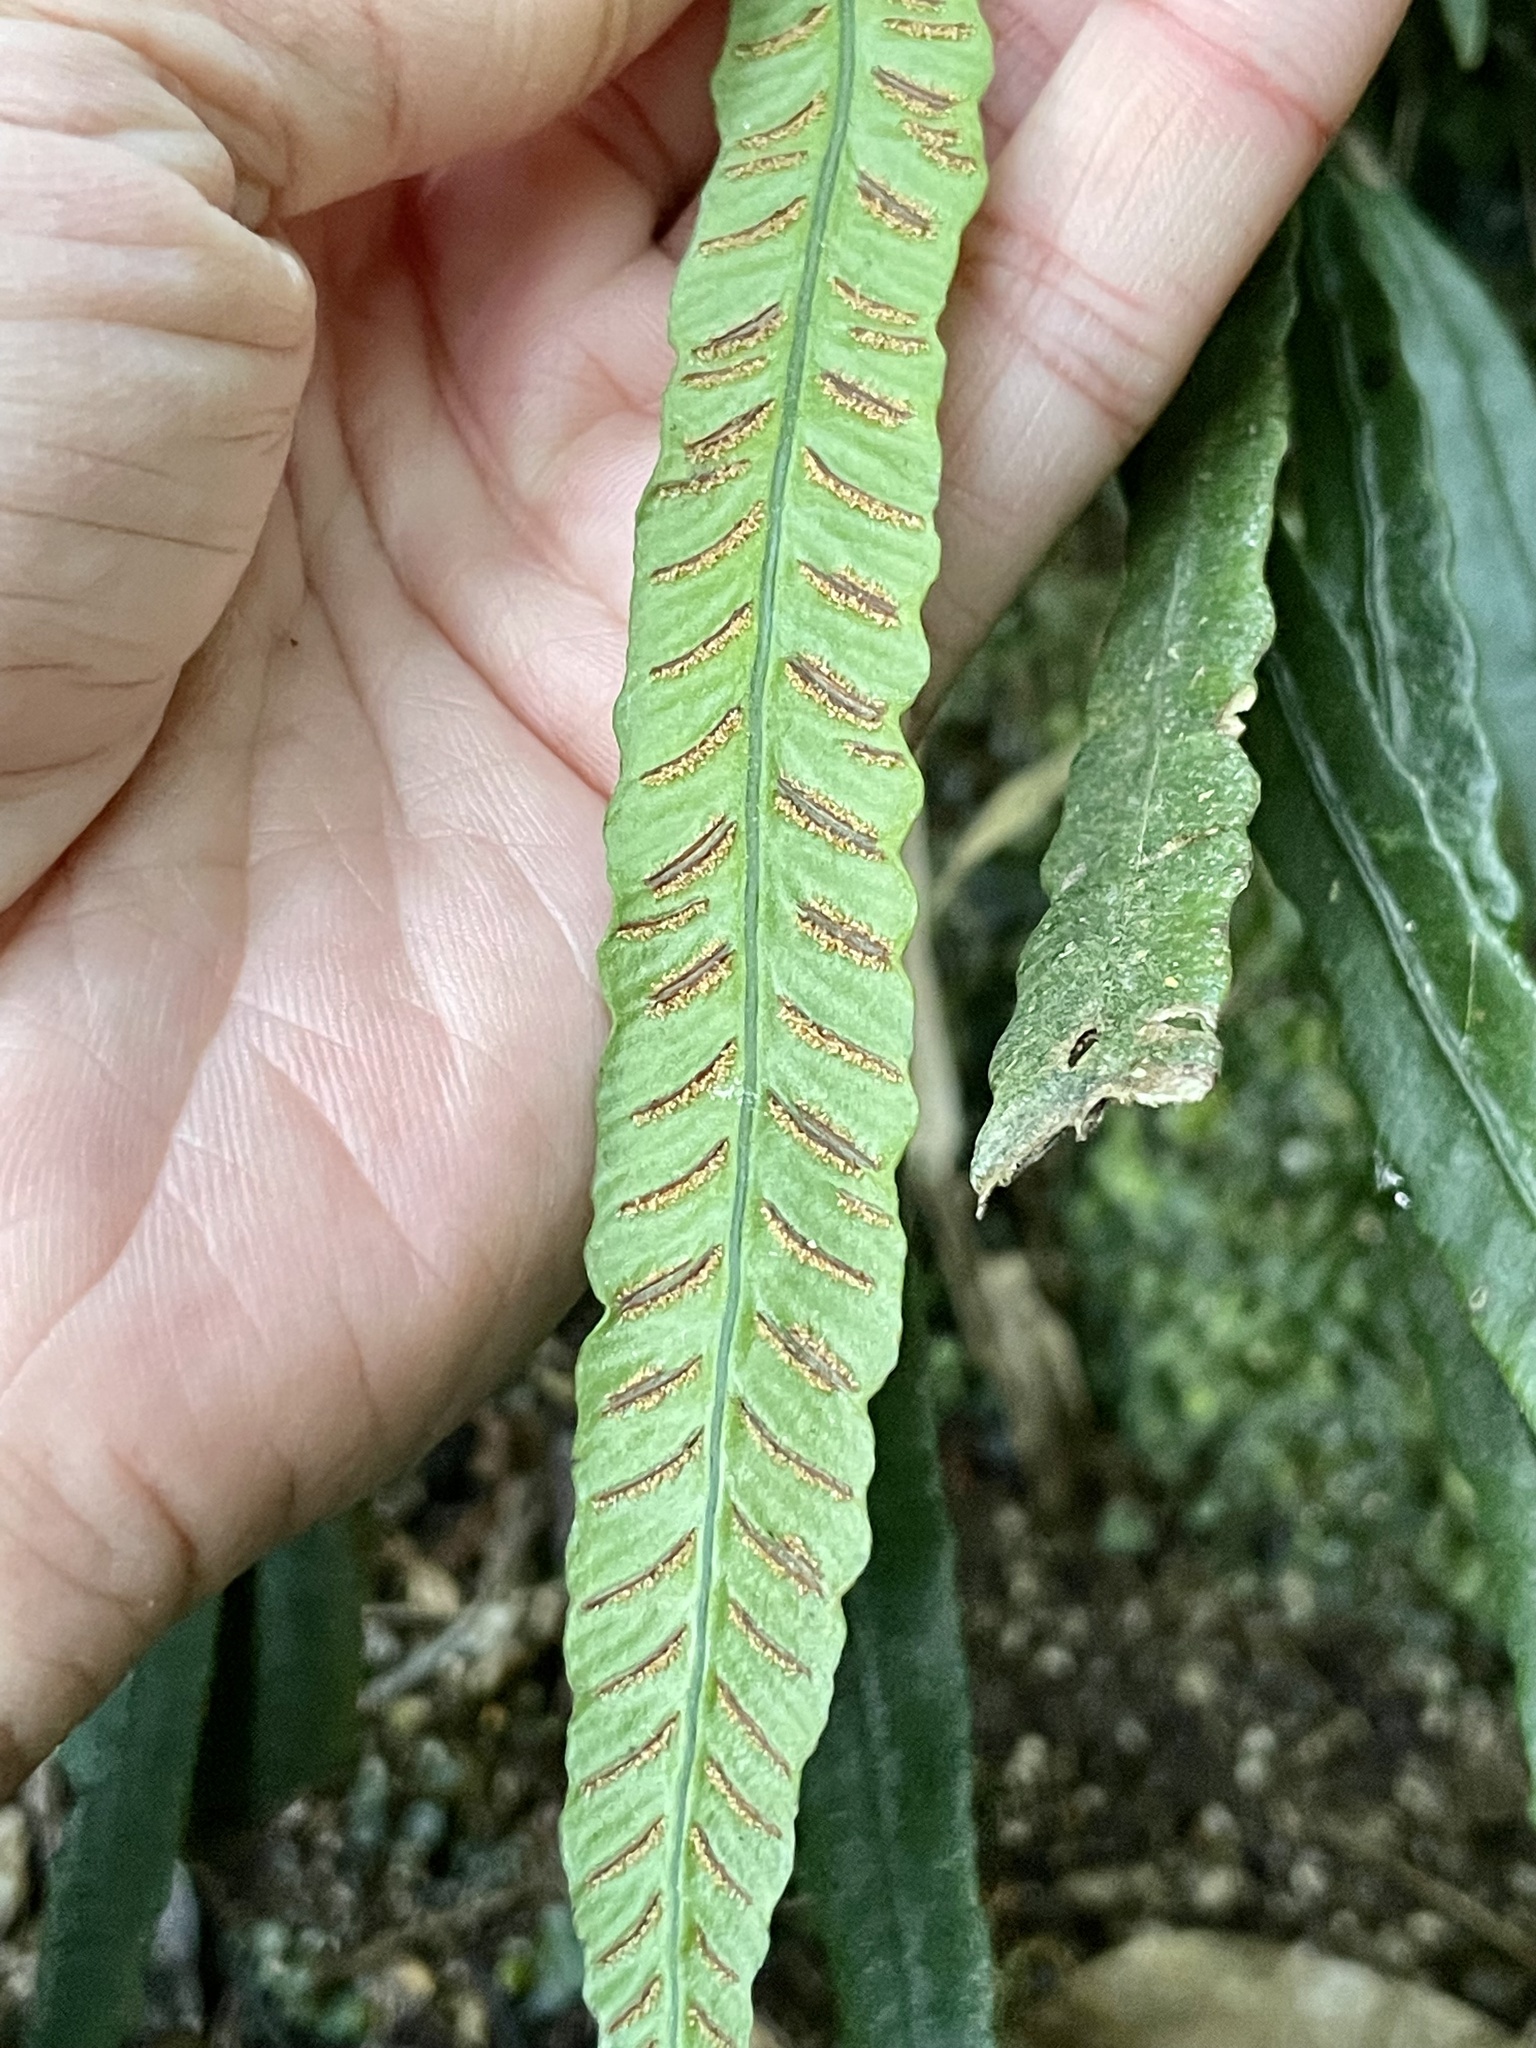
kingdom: Plantae
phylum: Tracheophyta
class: Polypodiopsida
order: Polypodiales
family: Athyriaceae
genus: Deparia
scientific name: Deparia lancea
